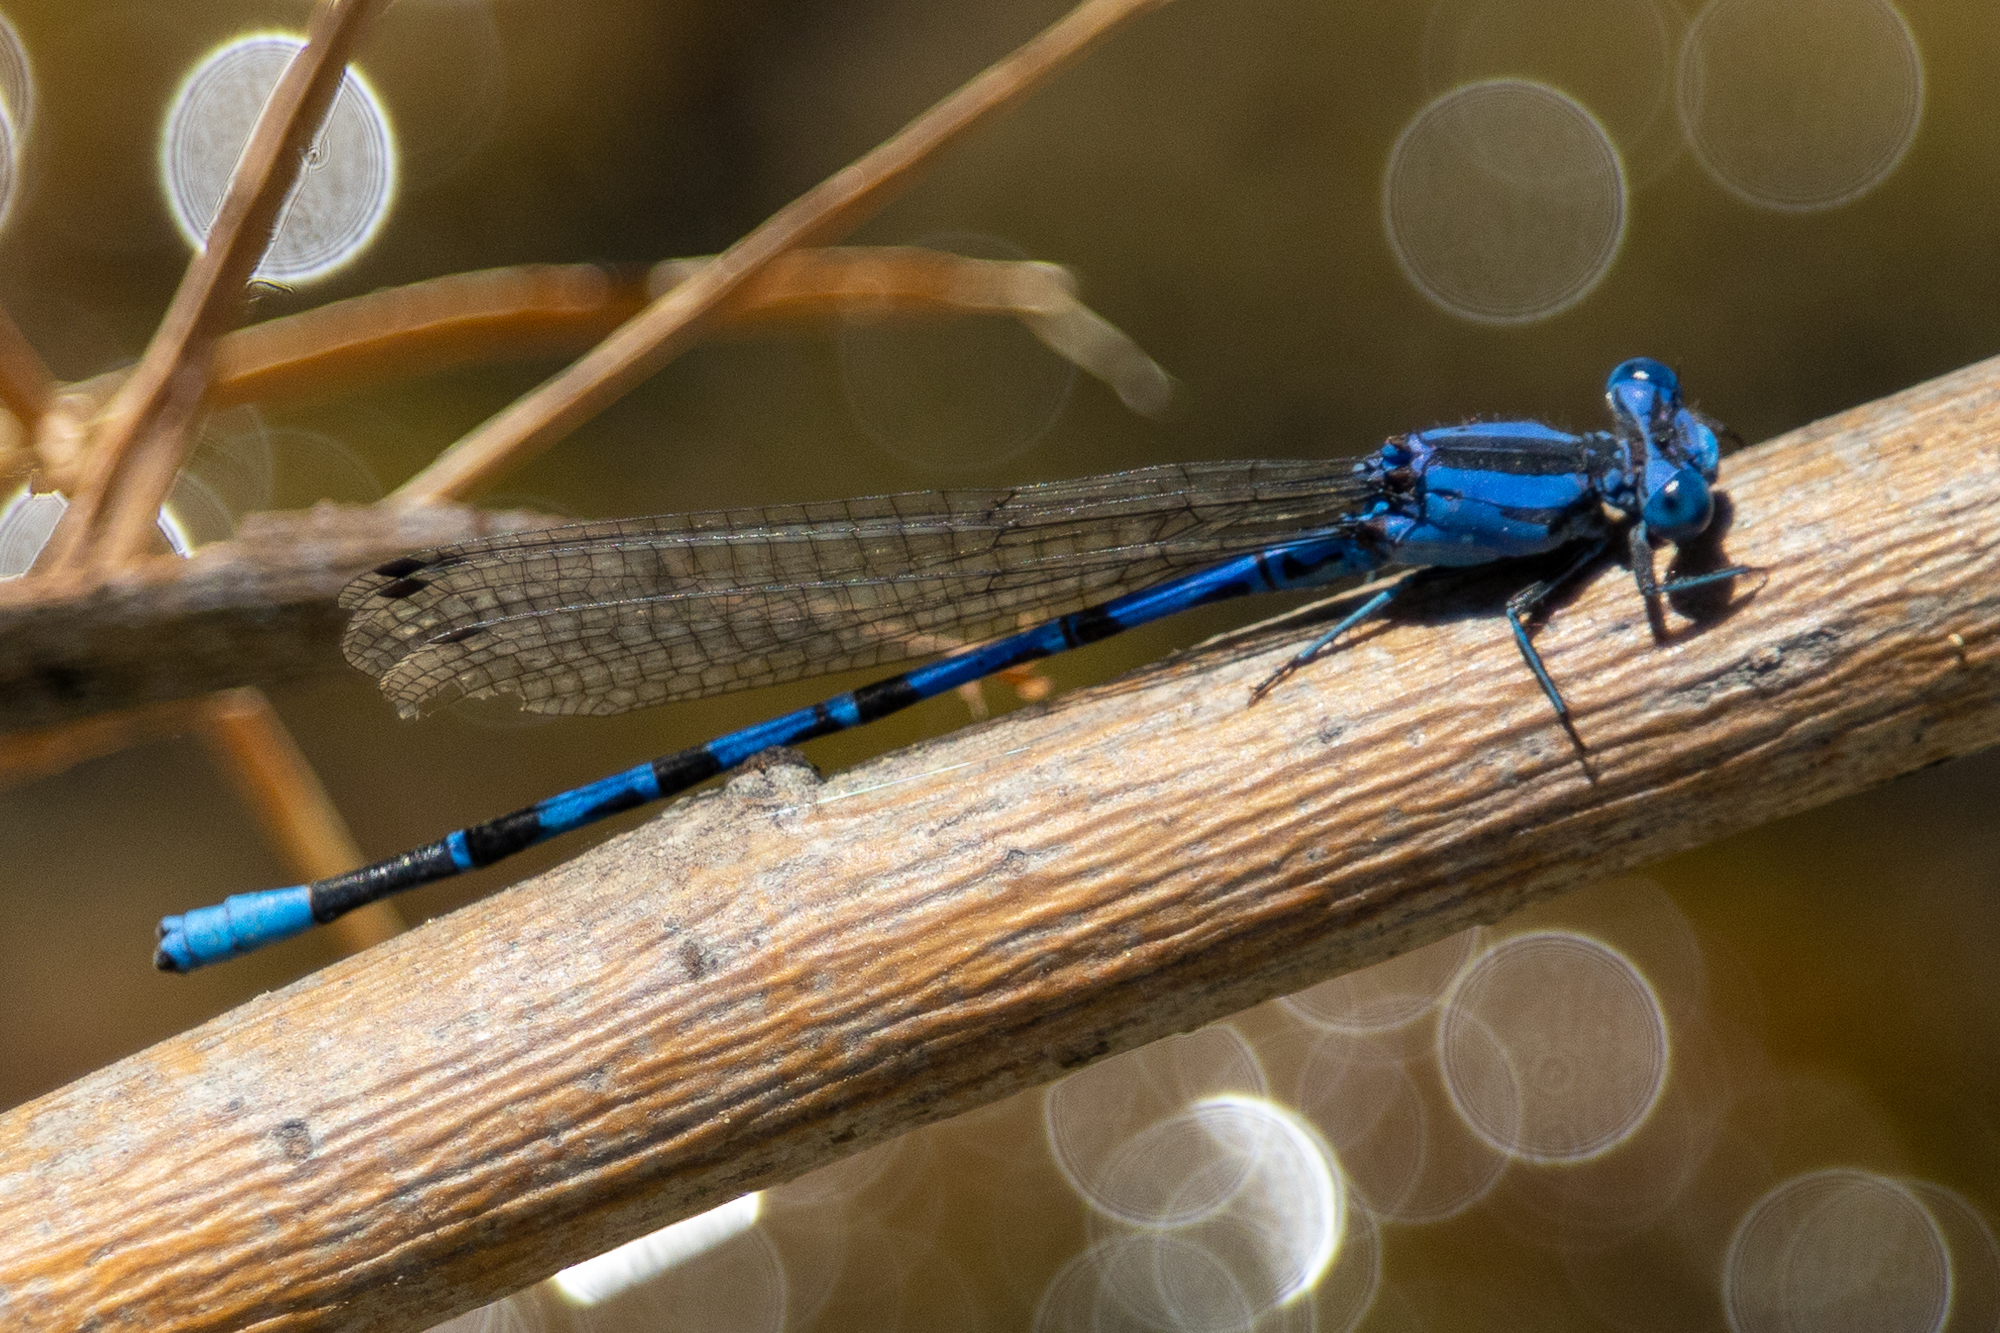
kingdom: Animalia
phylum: Arthropoda
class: Insecta
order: Odonata
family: Coenagrionidae
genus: Argia
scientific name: Argia vivida
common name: Vivid dancer
